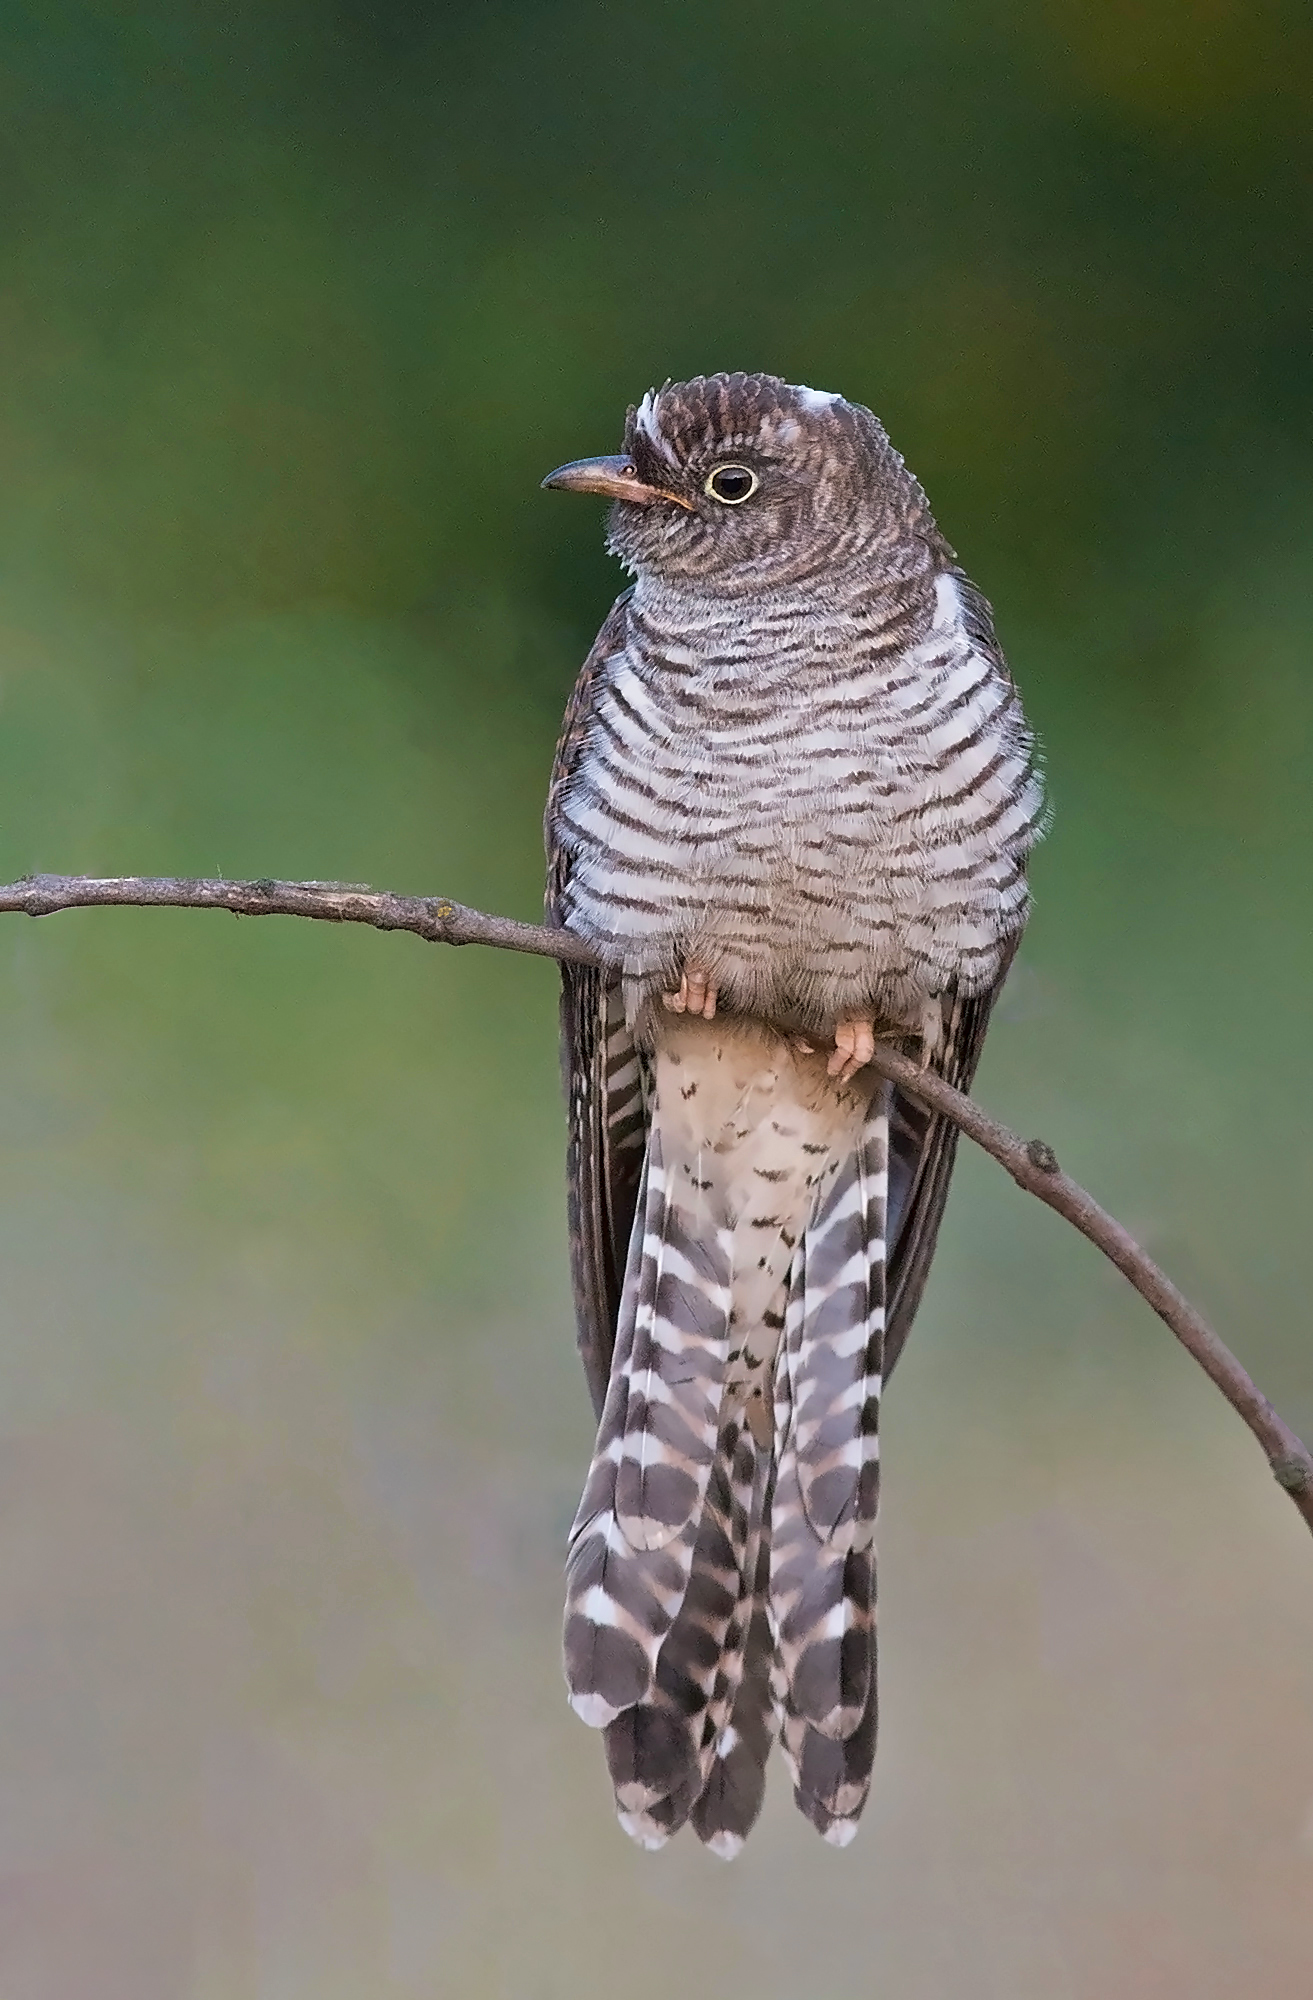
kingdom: Animalia
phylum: Chordata
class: Aves
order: Cuculiformes
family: Cuculidae
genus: Cuculus
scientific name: Cuculus canorus
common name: Common cuckoo
